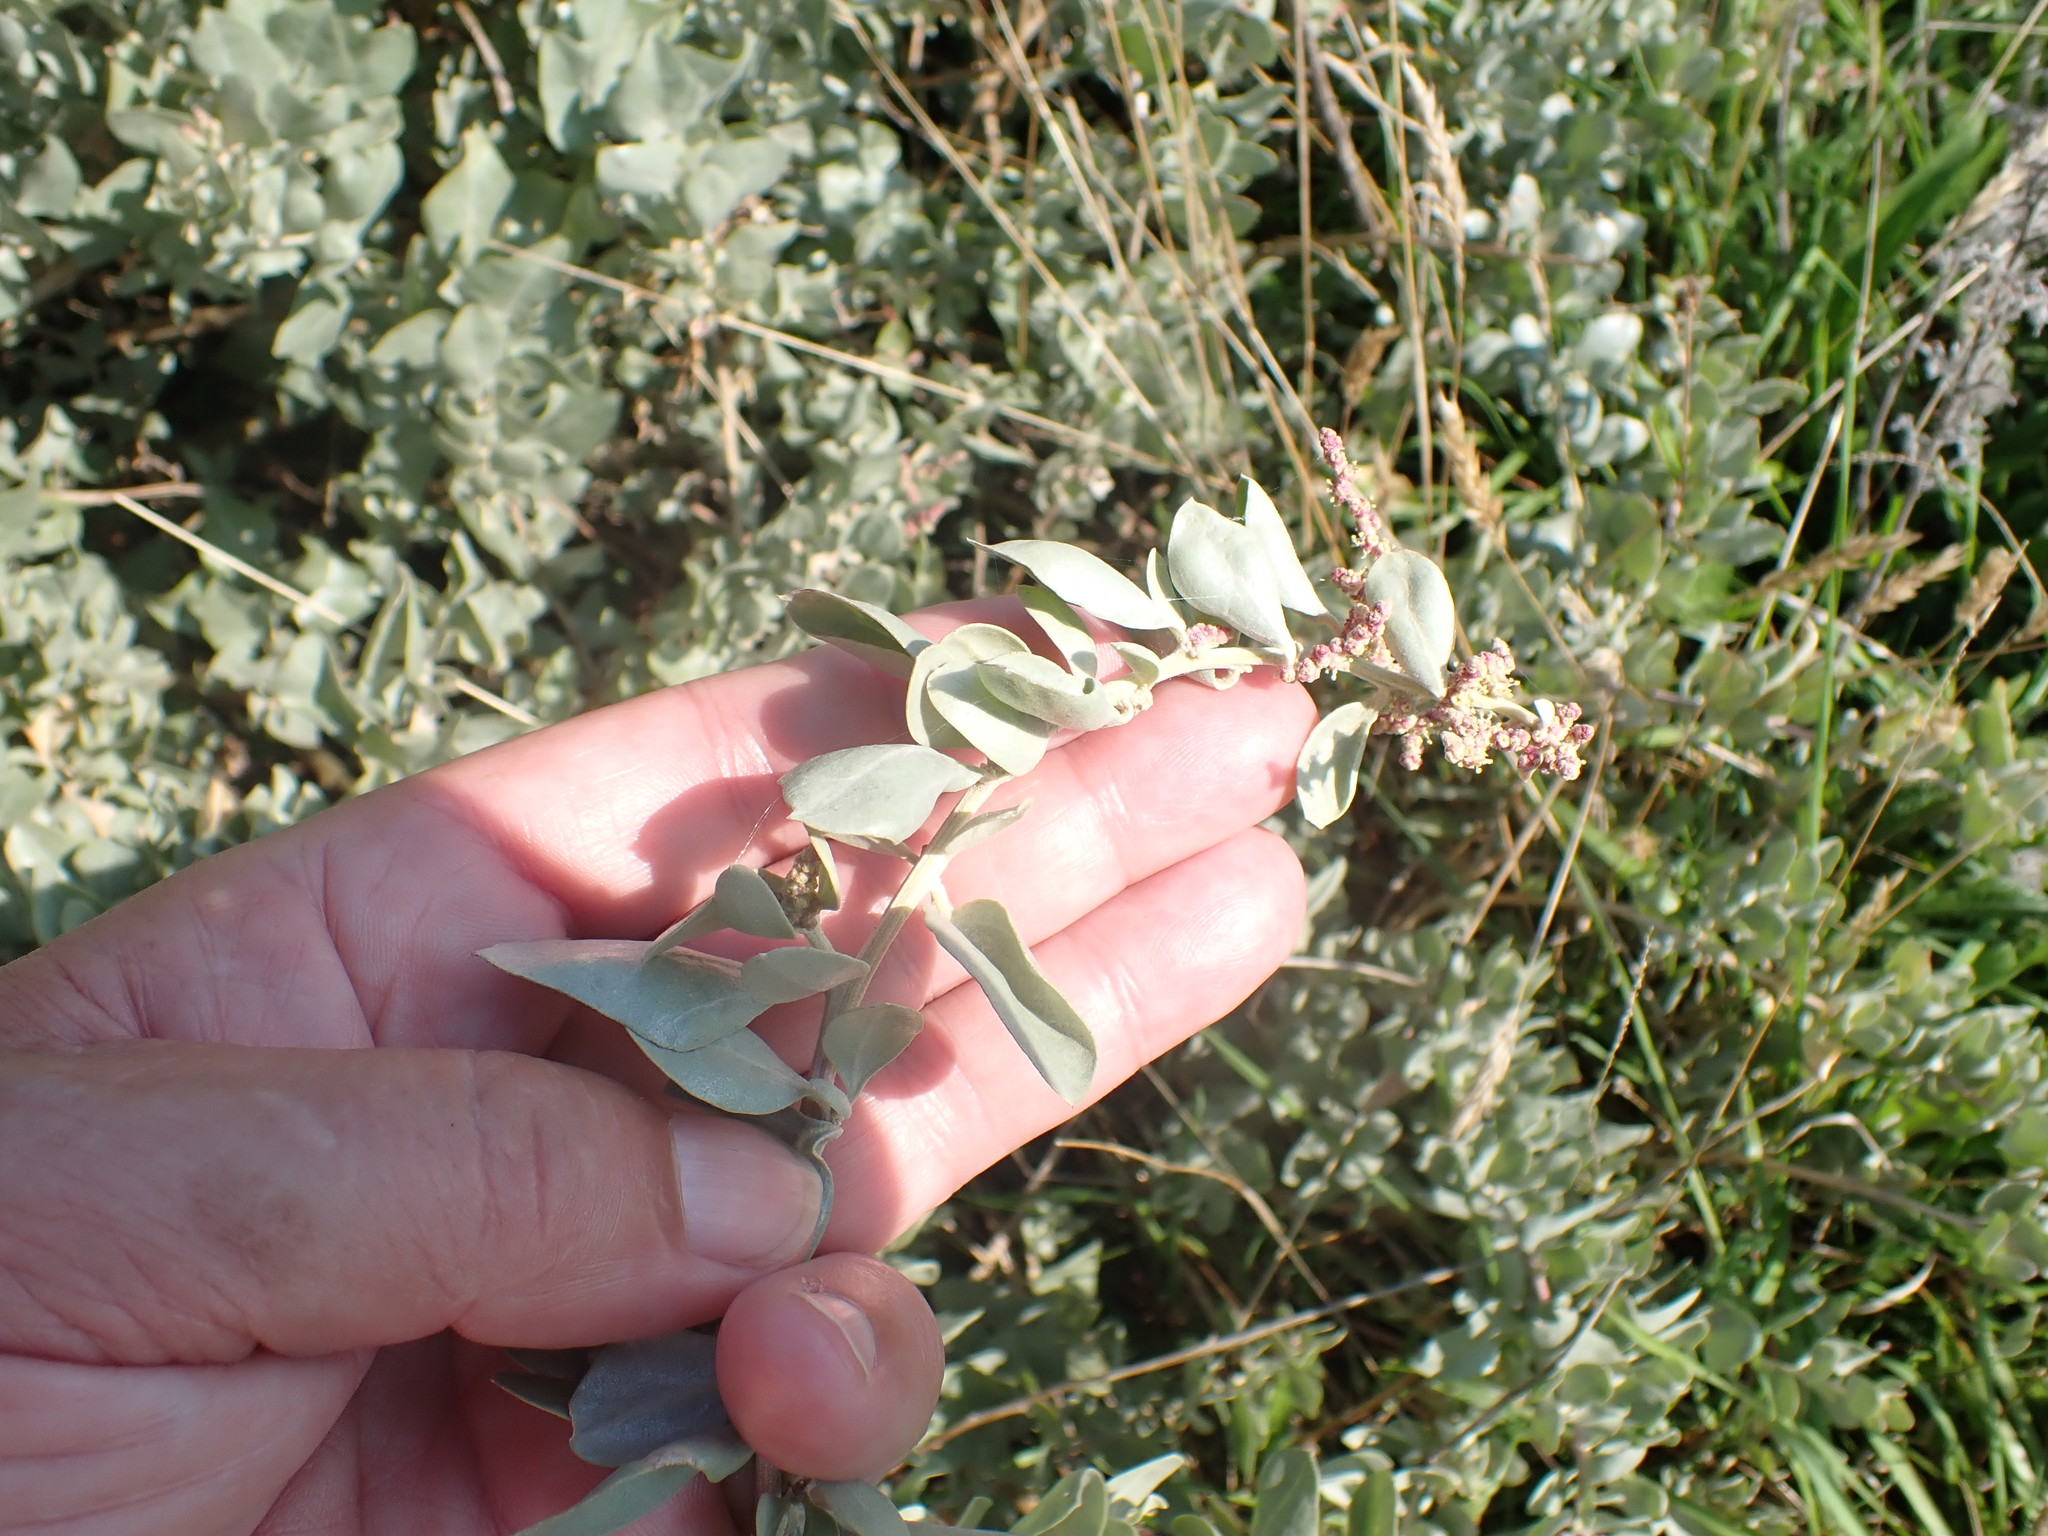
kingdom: Plantae
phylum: Tracheophyta
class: Magnoliopsida
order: Caryophyllales
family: Amaranthaceae
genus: Atriplex
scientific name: Atriplex halimus
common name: Shrubby orache
